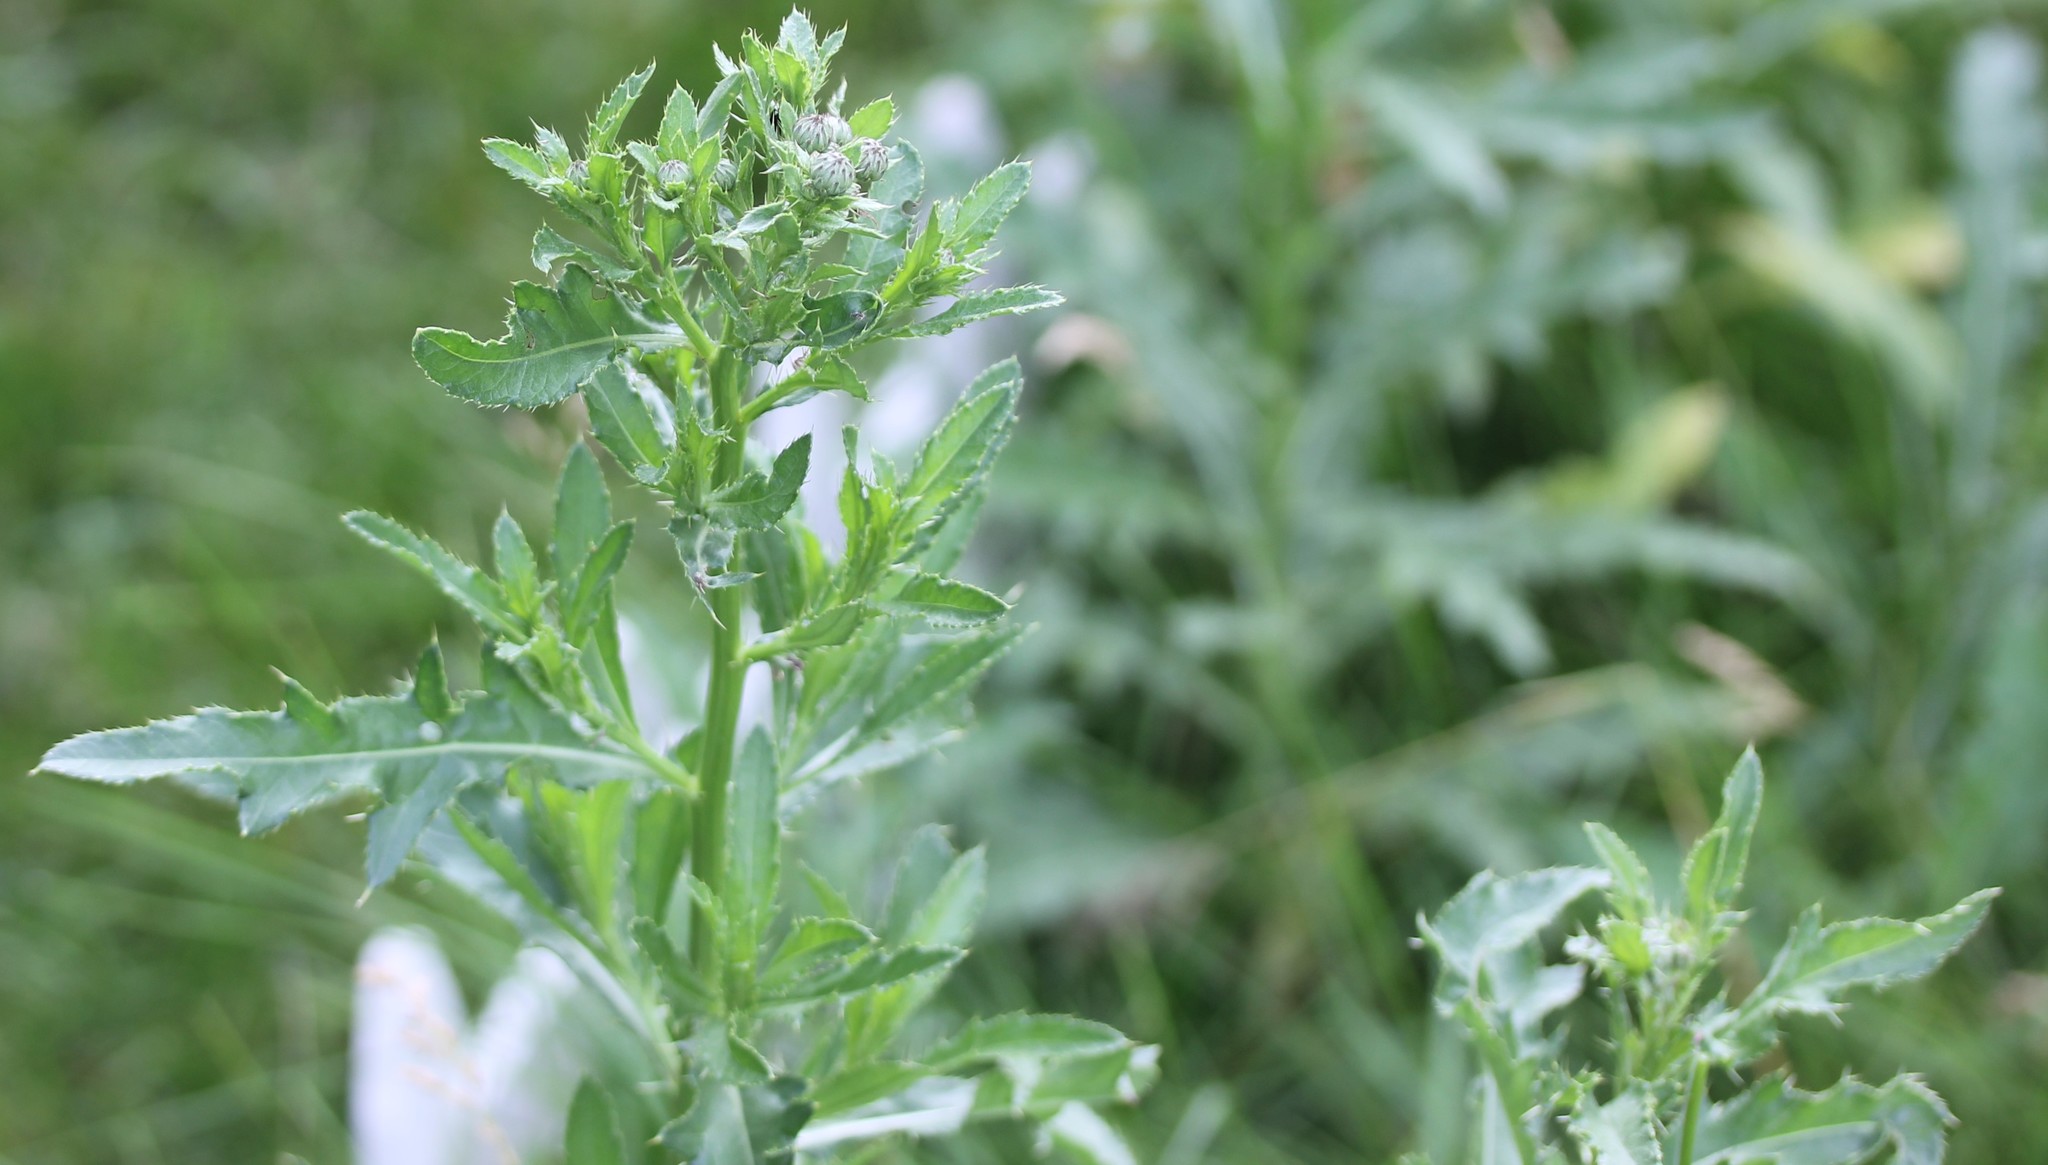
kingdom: Plantae
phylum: Tracheophyta
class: Magnoliopsida
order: Asterales
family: Asteraceae
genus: Cirsium
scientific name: Cirsium arvense
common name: Creeping thistle
